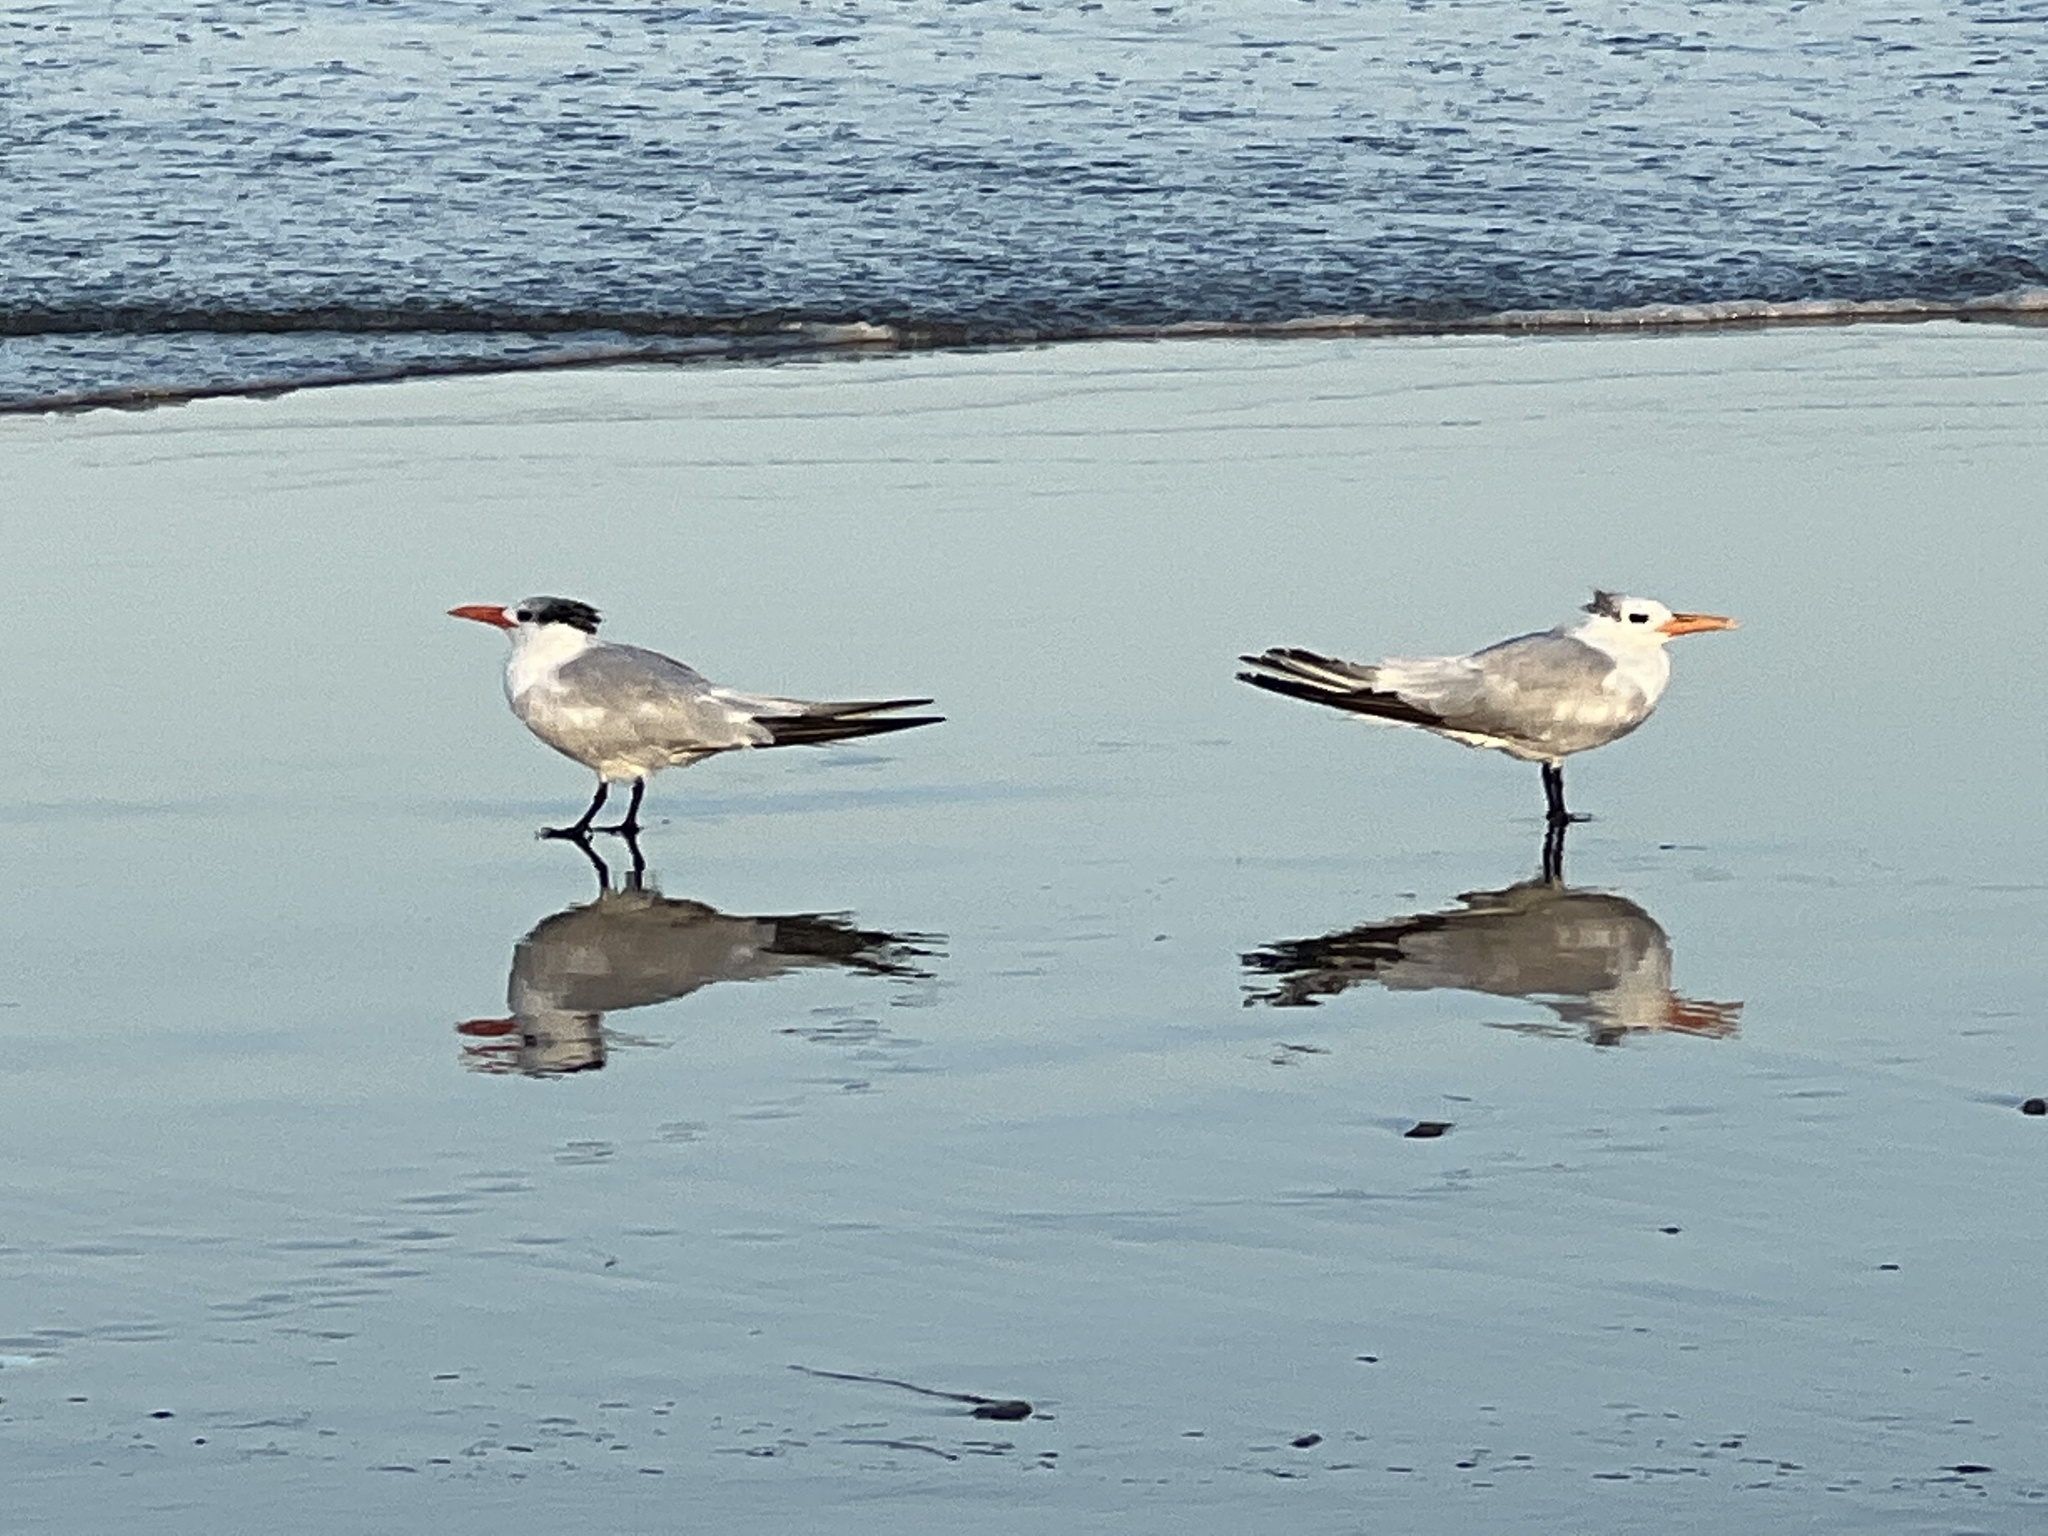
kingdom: Animalia
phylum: Chordata
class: Aves
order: Charadriiformes
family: Laridae
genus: Thalasseus
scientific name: Thalasseus maximus
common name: Royal tern
